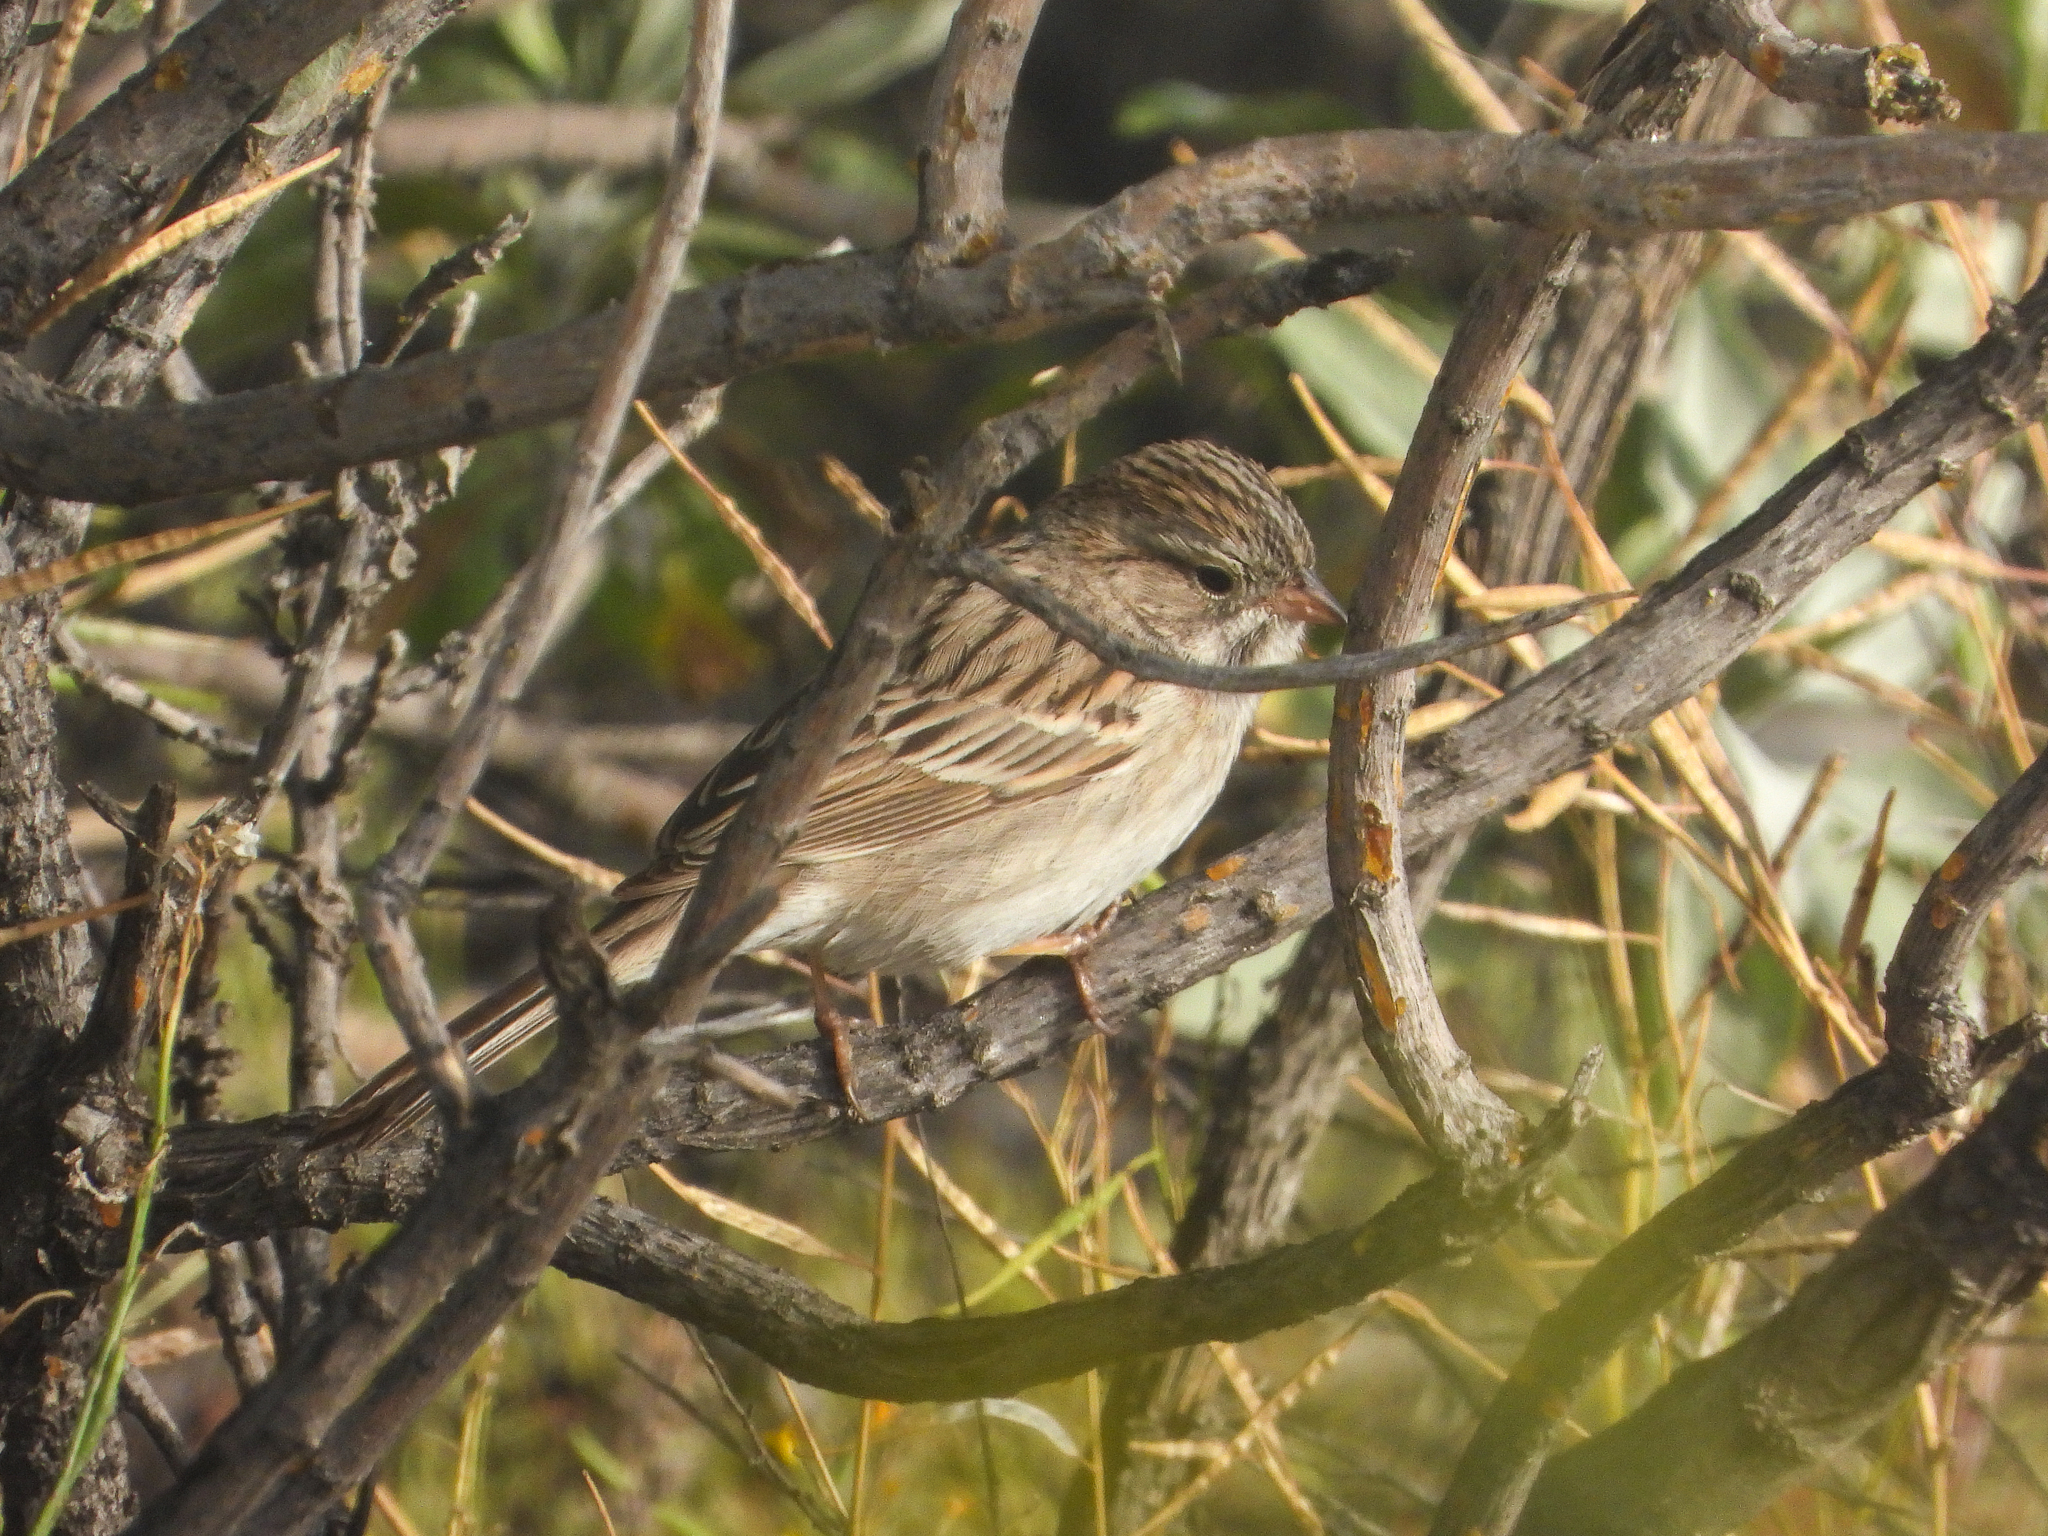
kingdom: Animalia
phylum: Chordata
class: Aves
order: Passeriformes
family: Passerellidae
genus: Spizella
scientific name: Spizella breweri
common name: Brewer's sparrow
